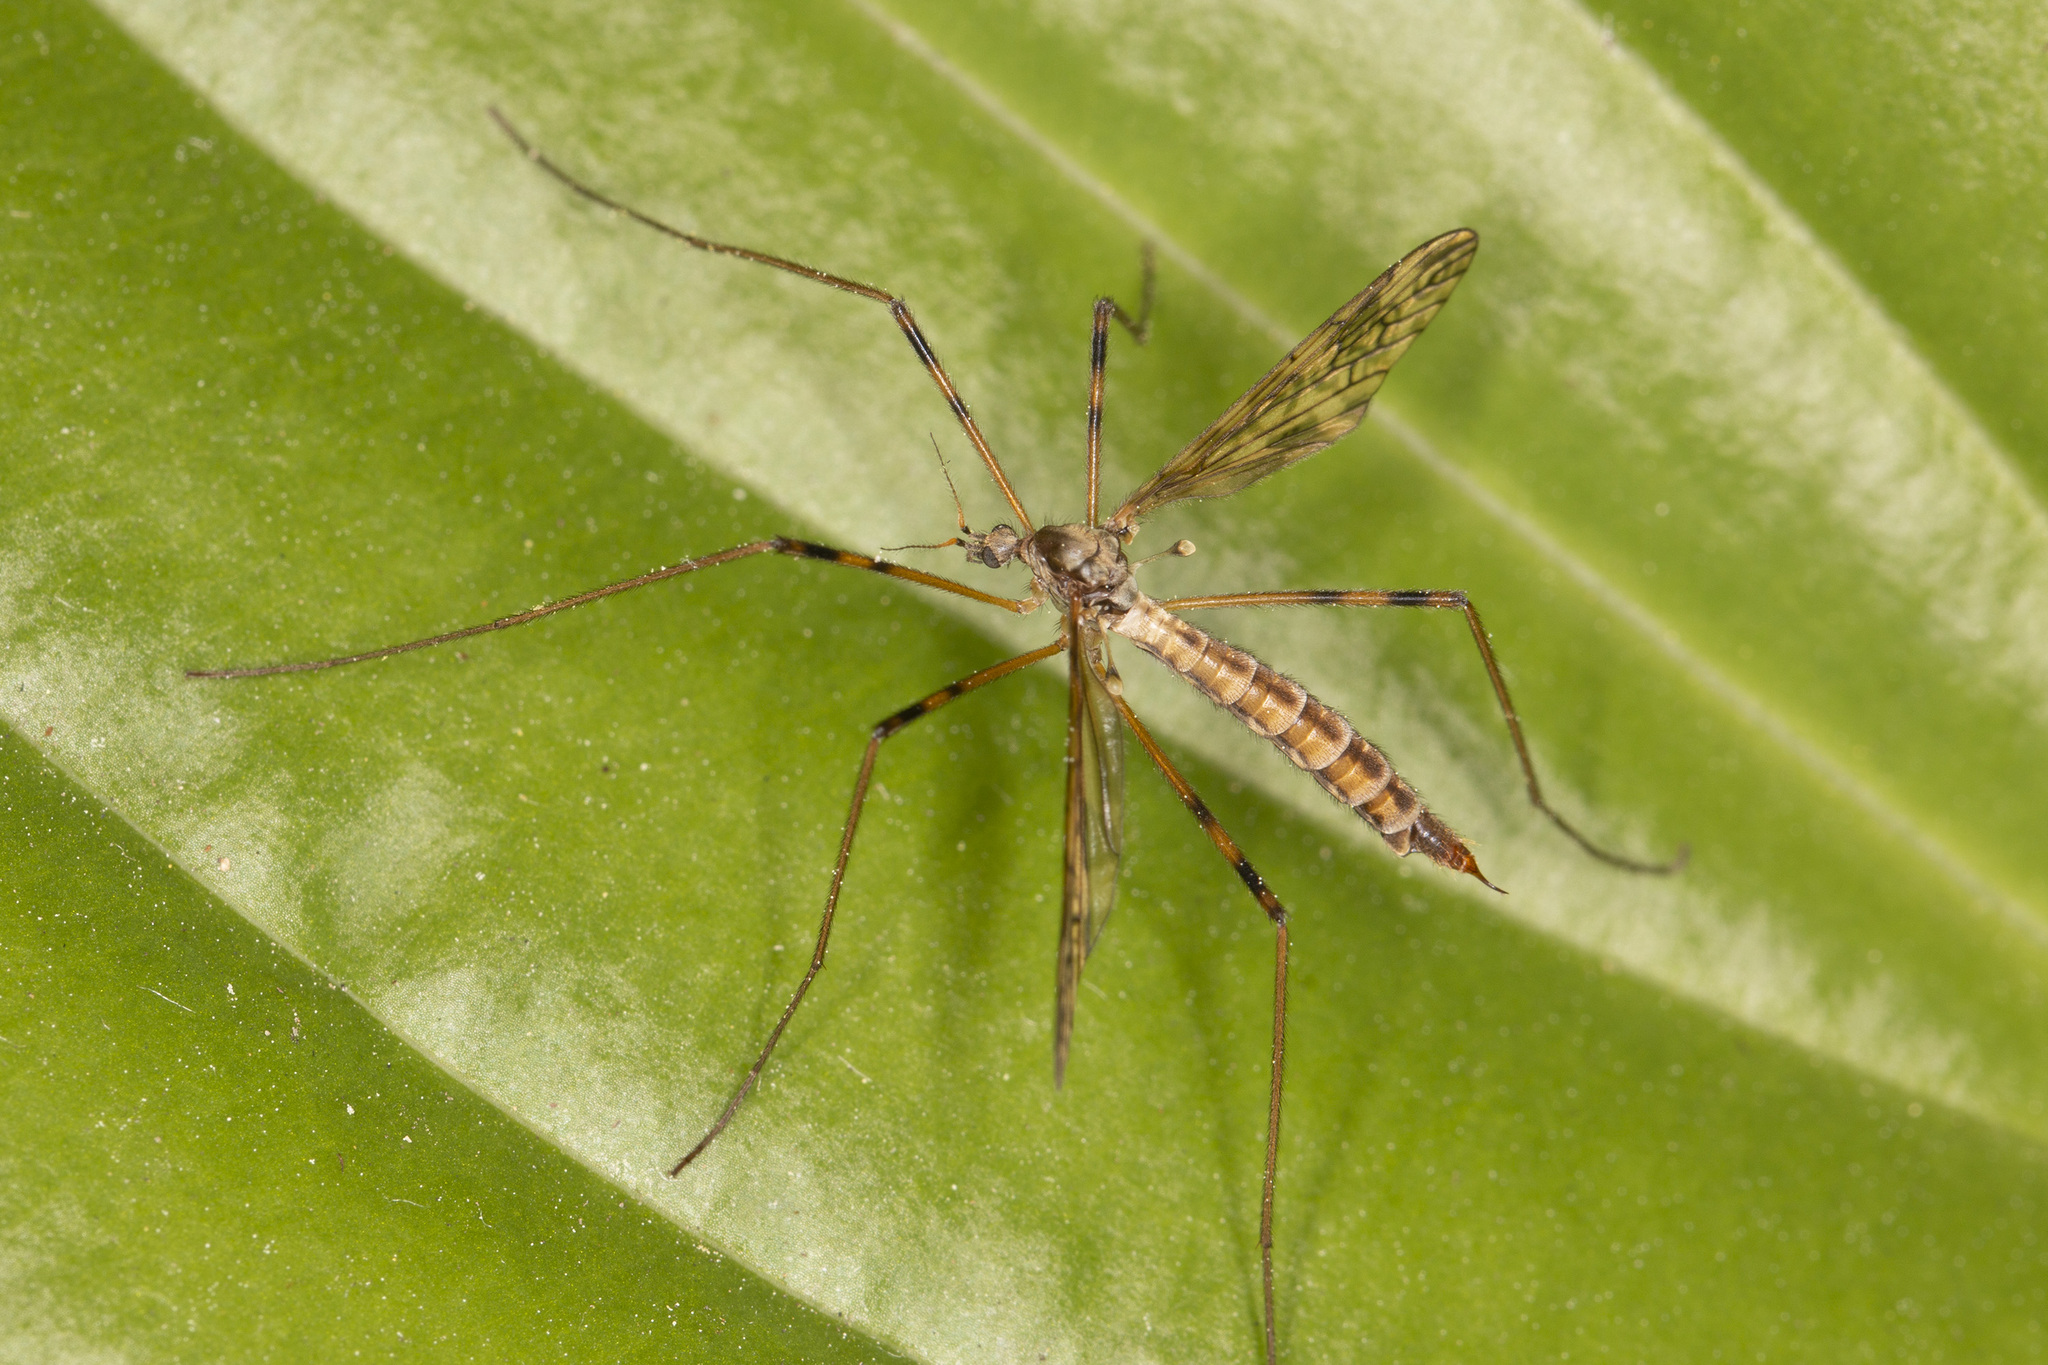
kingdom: Animalia
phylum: Arthropoda
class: Insecta
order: Diptera
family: Limoniidae
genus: Epiphragma
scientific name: Epiphragma ocellare
